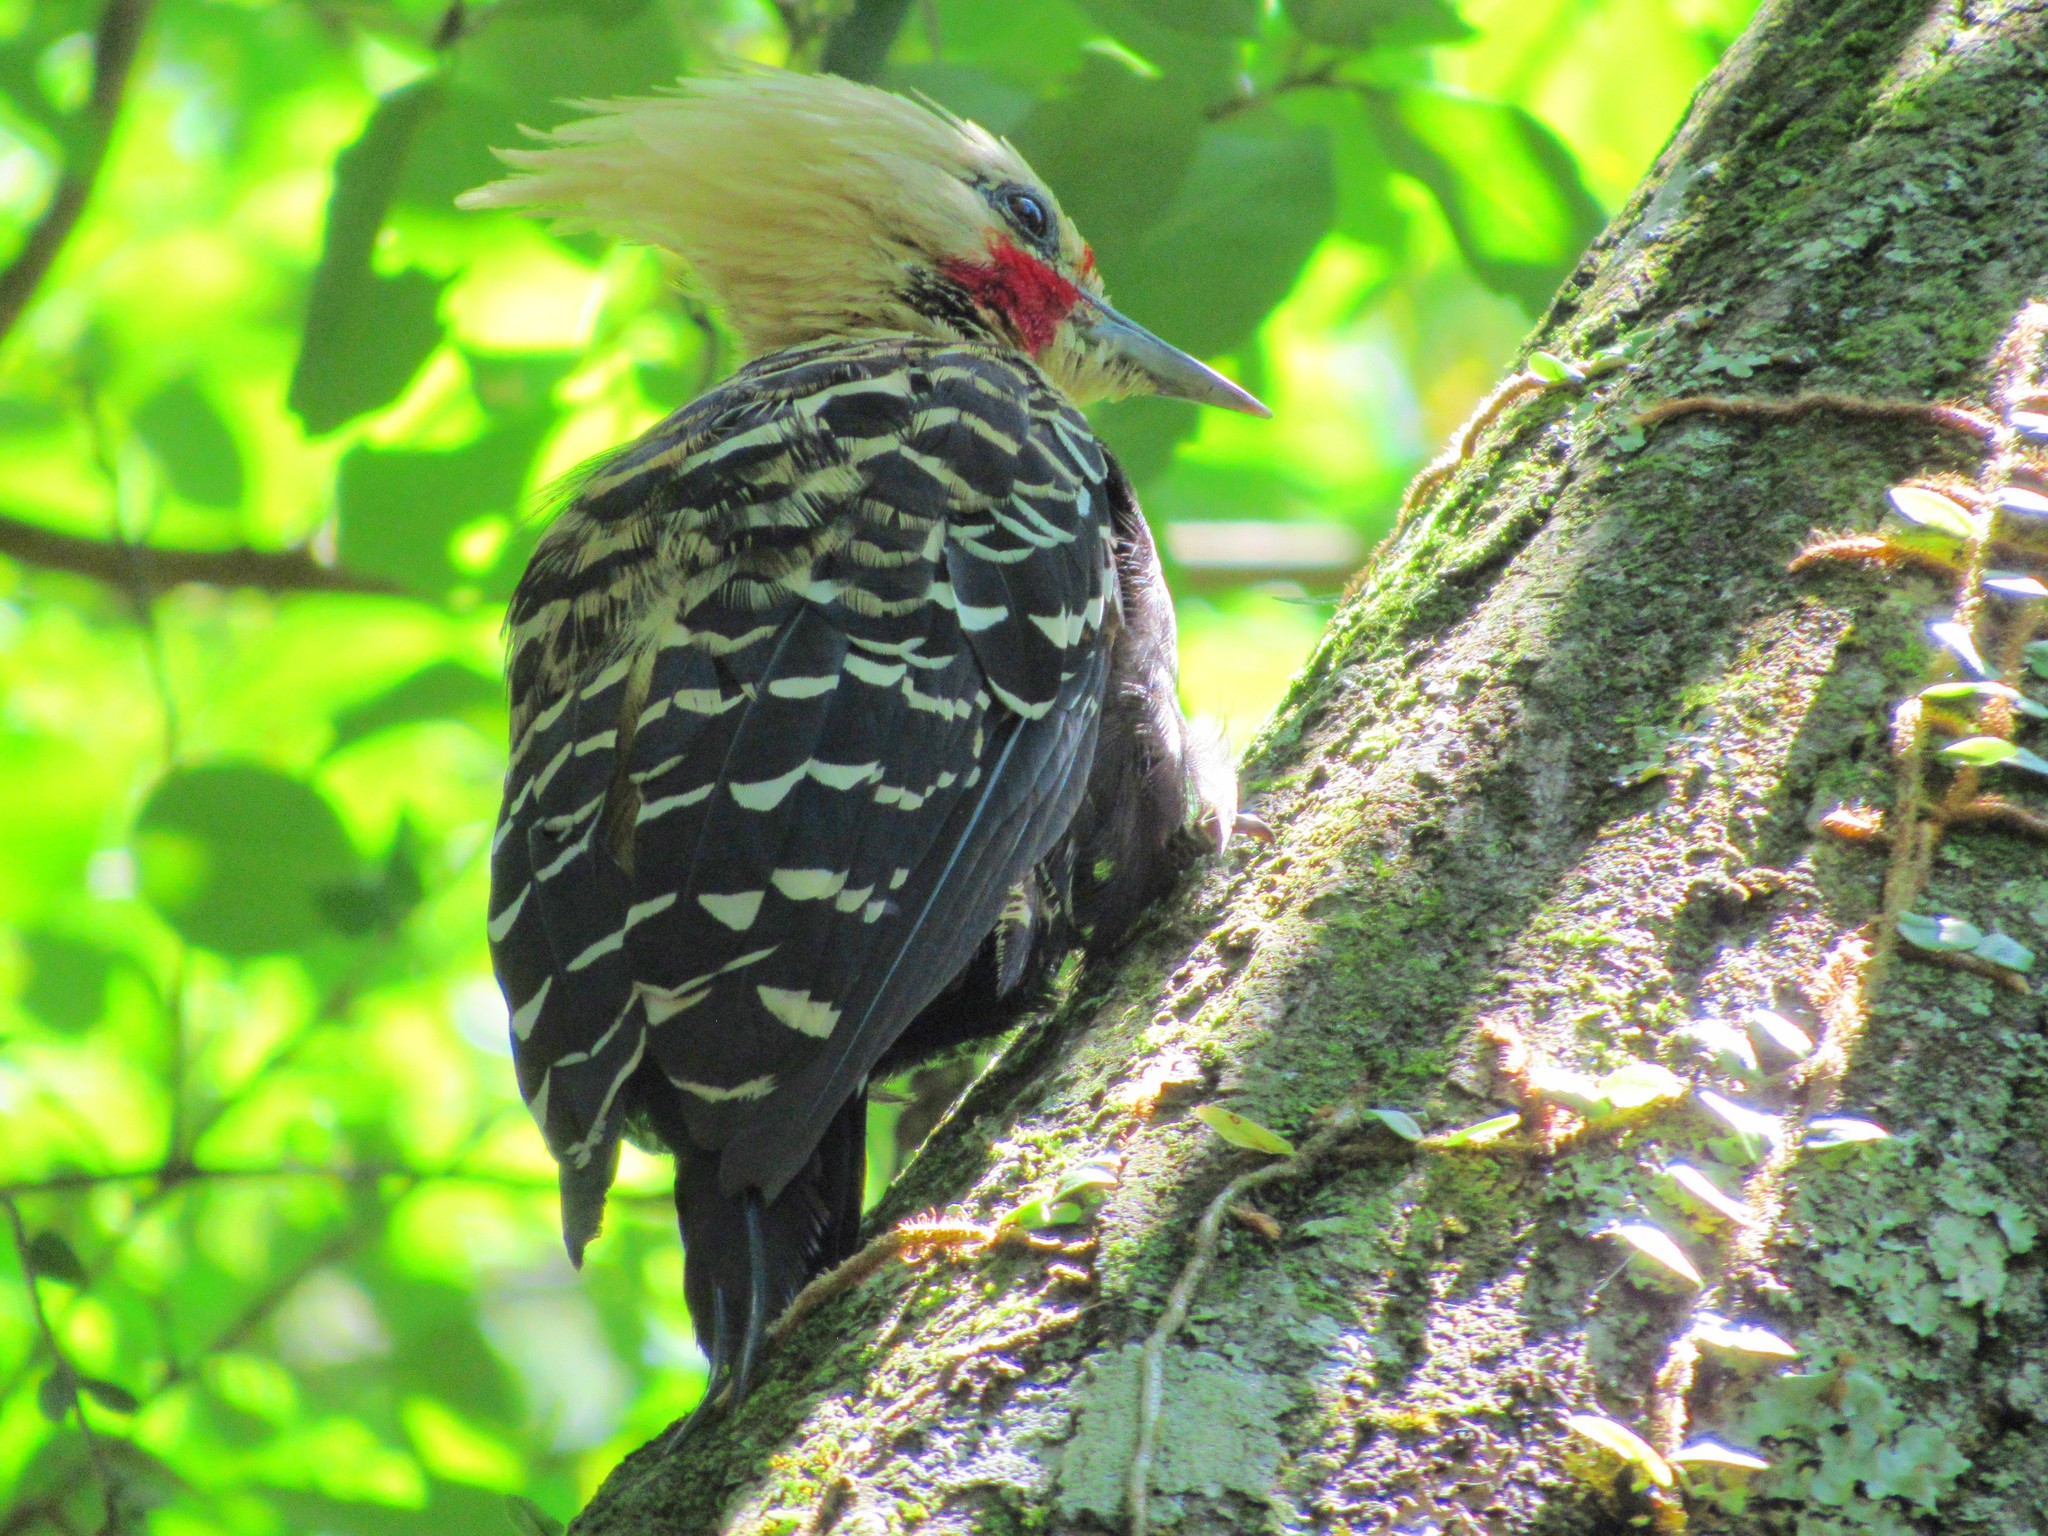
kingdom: Animalia
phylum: Chordata
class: Aves
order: Piciformes
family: Picidae
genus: Celeus
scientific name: Celeus flavescens
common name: Blond-crested woodpecker
